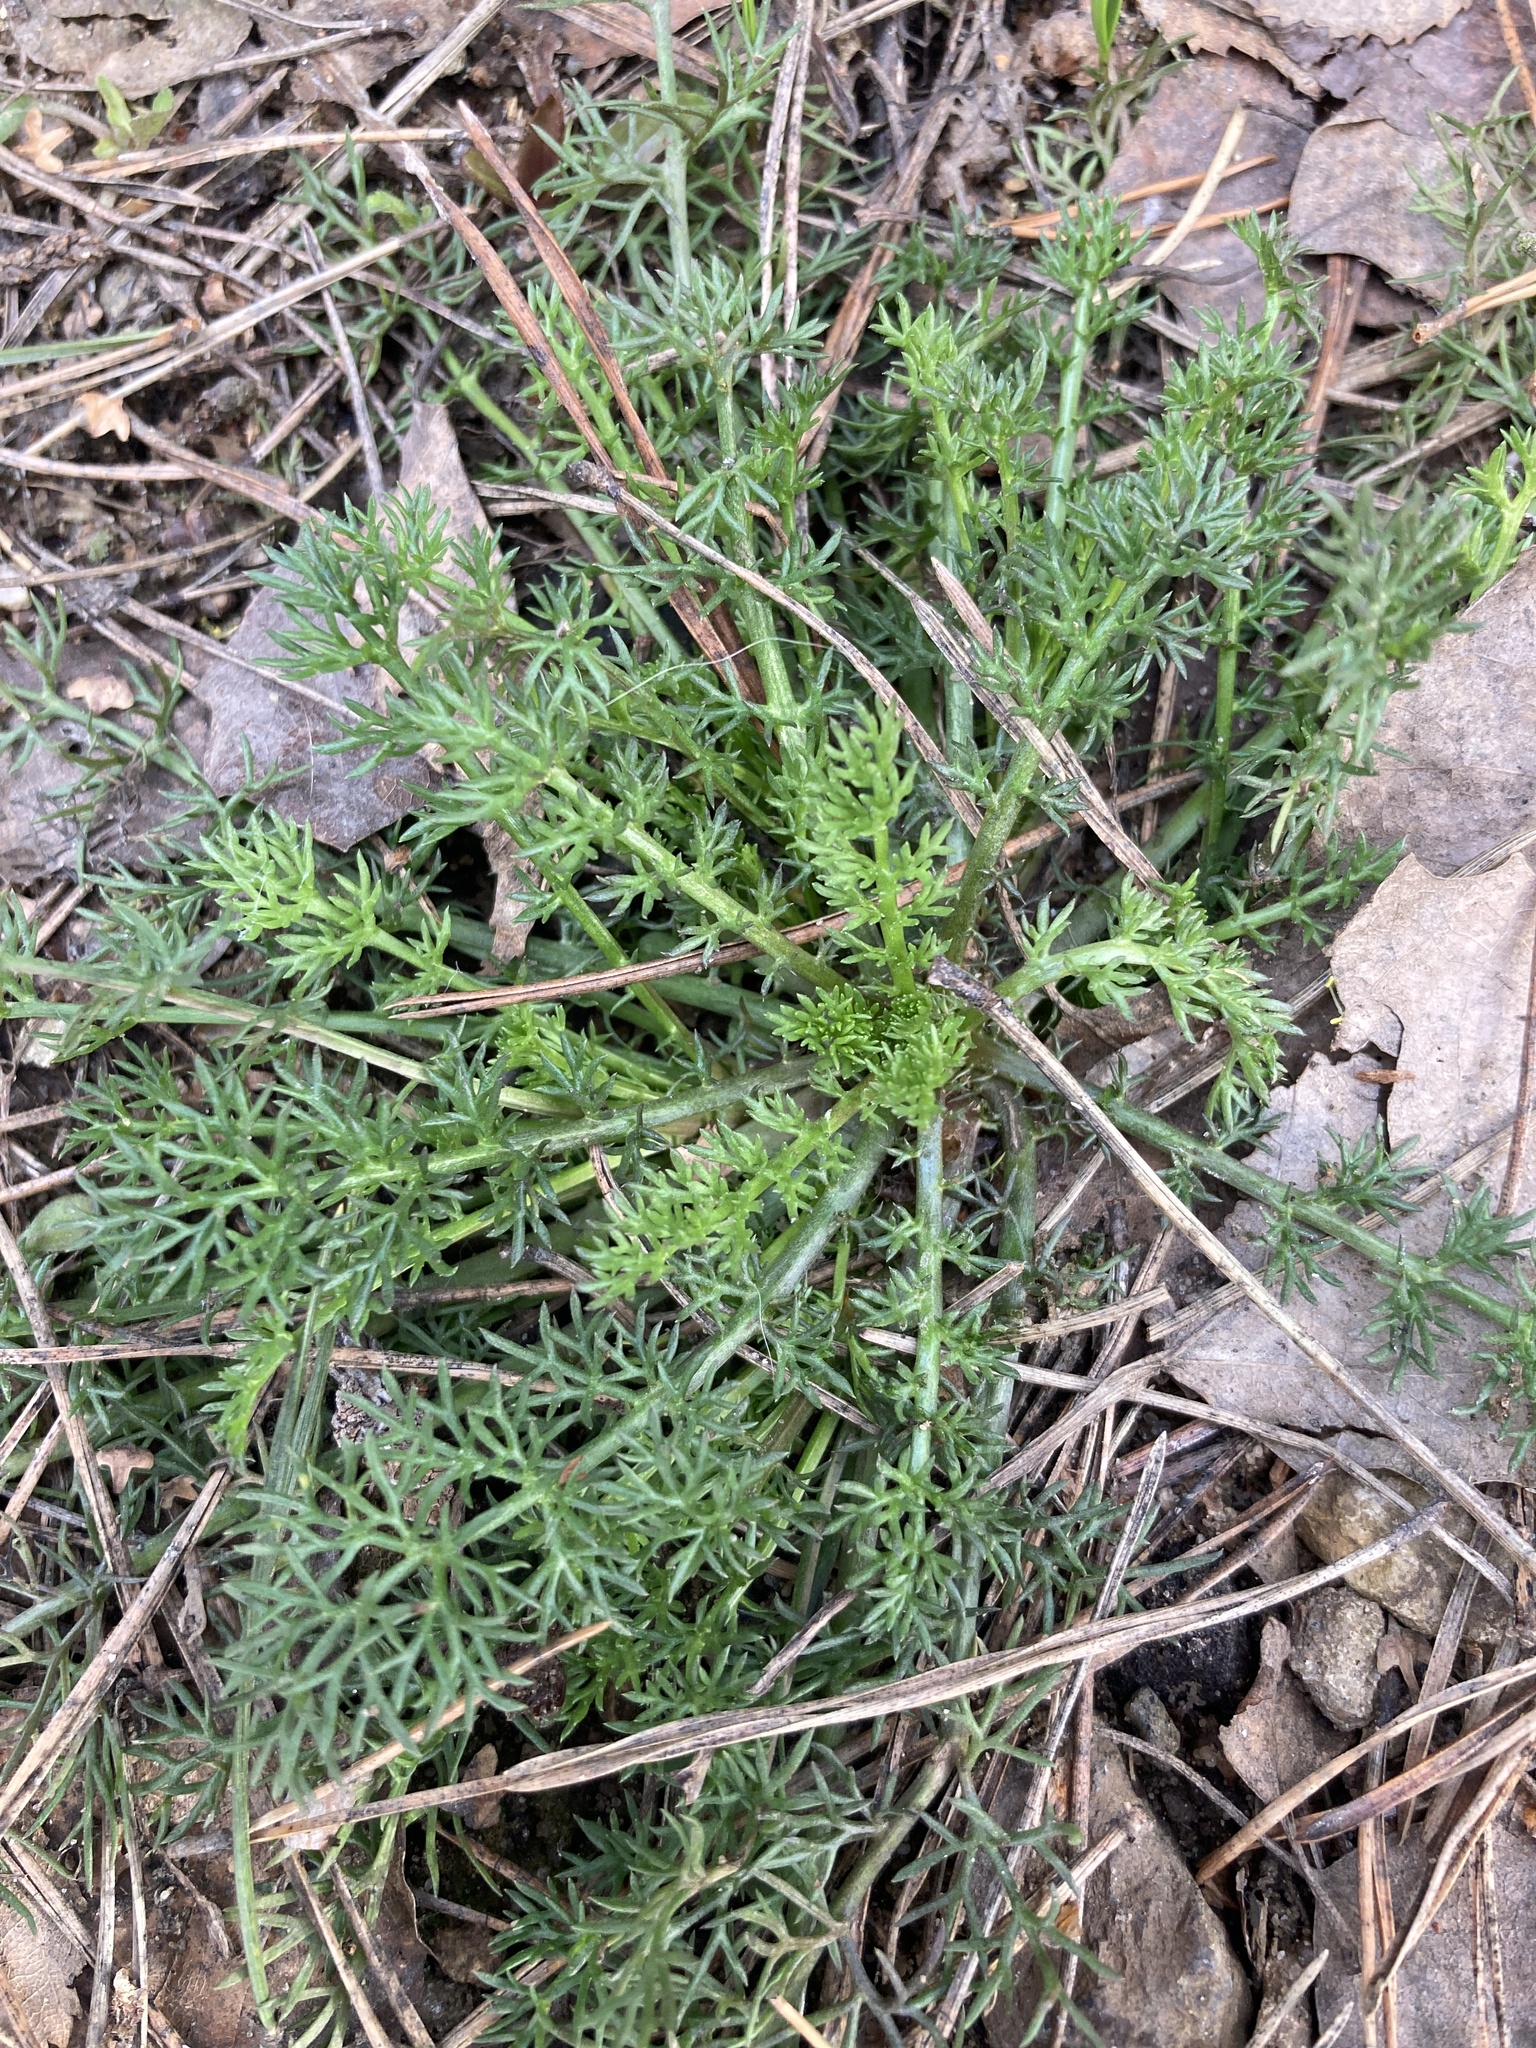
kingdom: Plantae
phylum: Tracheophyta
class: Magnoliopsida
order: Asterales
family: Asteraceae
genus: Tripleurospermum
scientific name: Tripleurospermum inodorum
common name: Scentless mayweed
